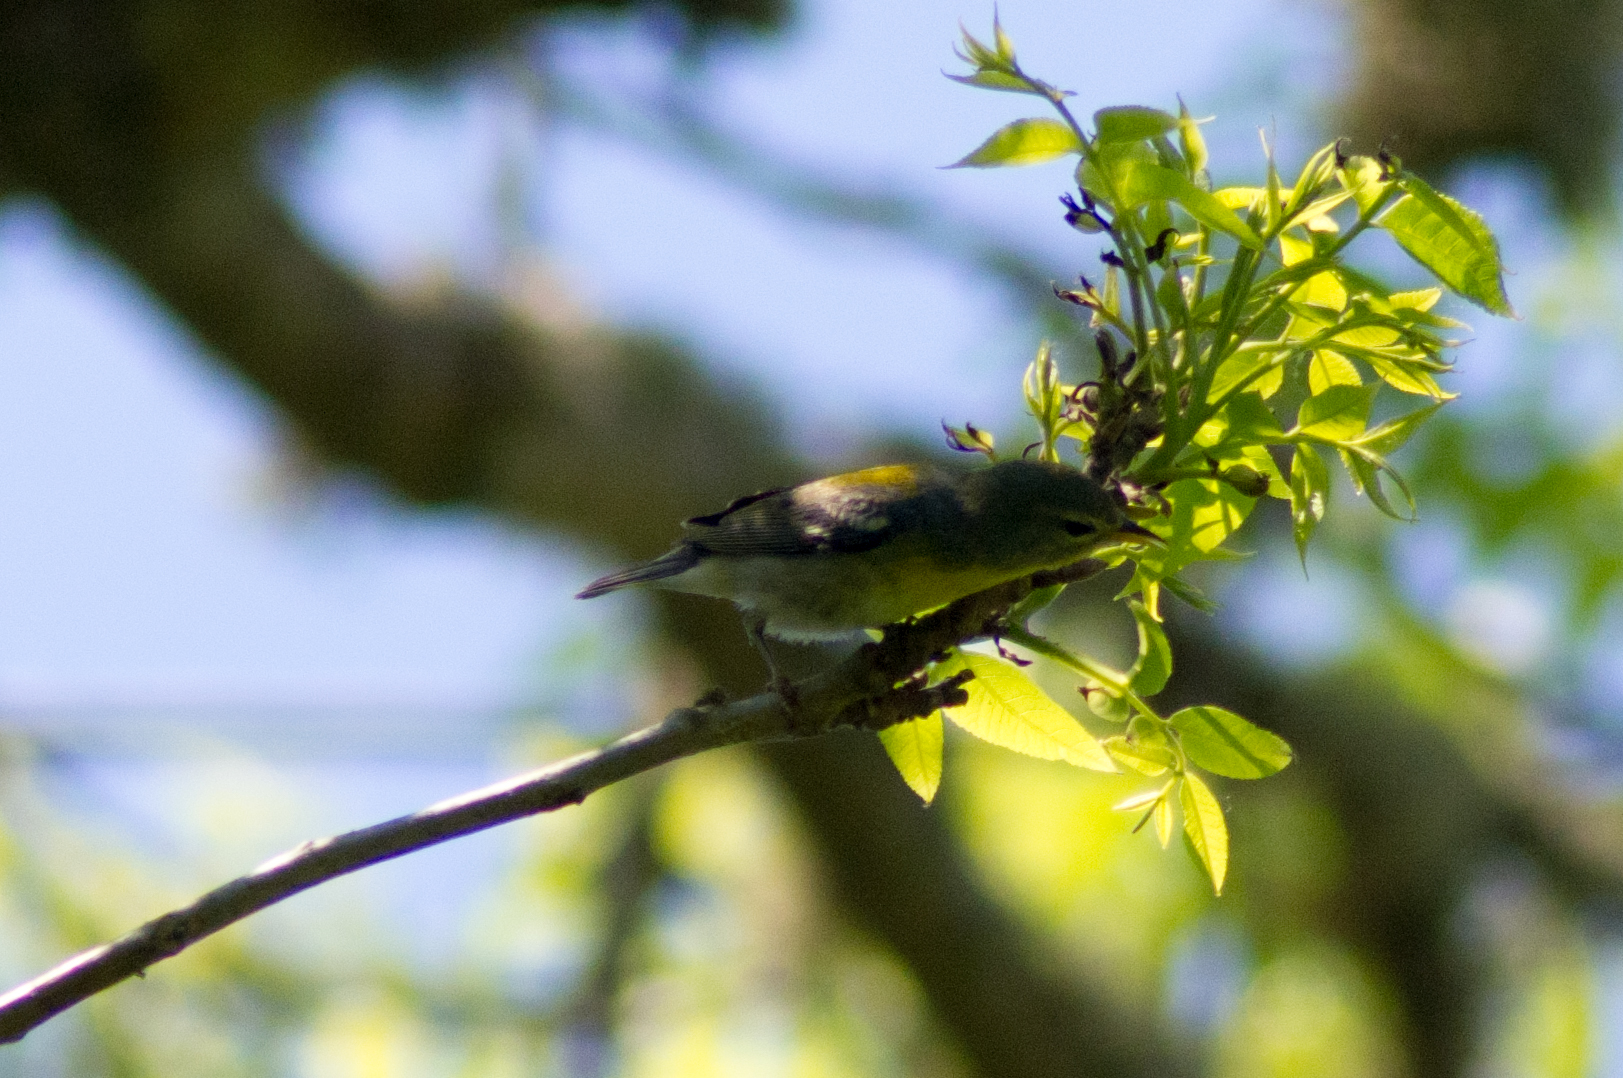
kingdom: Animalia
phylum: Chordata
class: Aves
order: Passeriformes
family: Parulidae
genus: Setophaga
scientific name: Setophaga americana
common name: Northern parula
